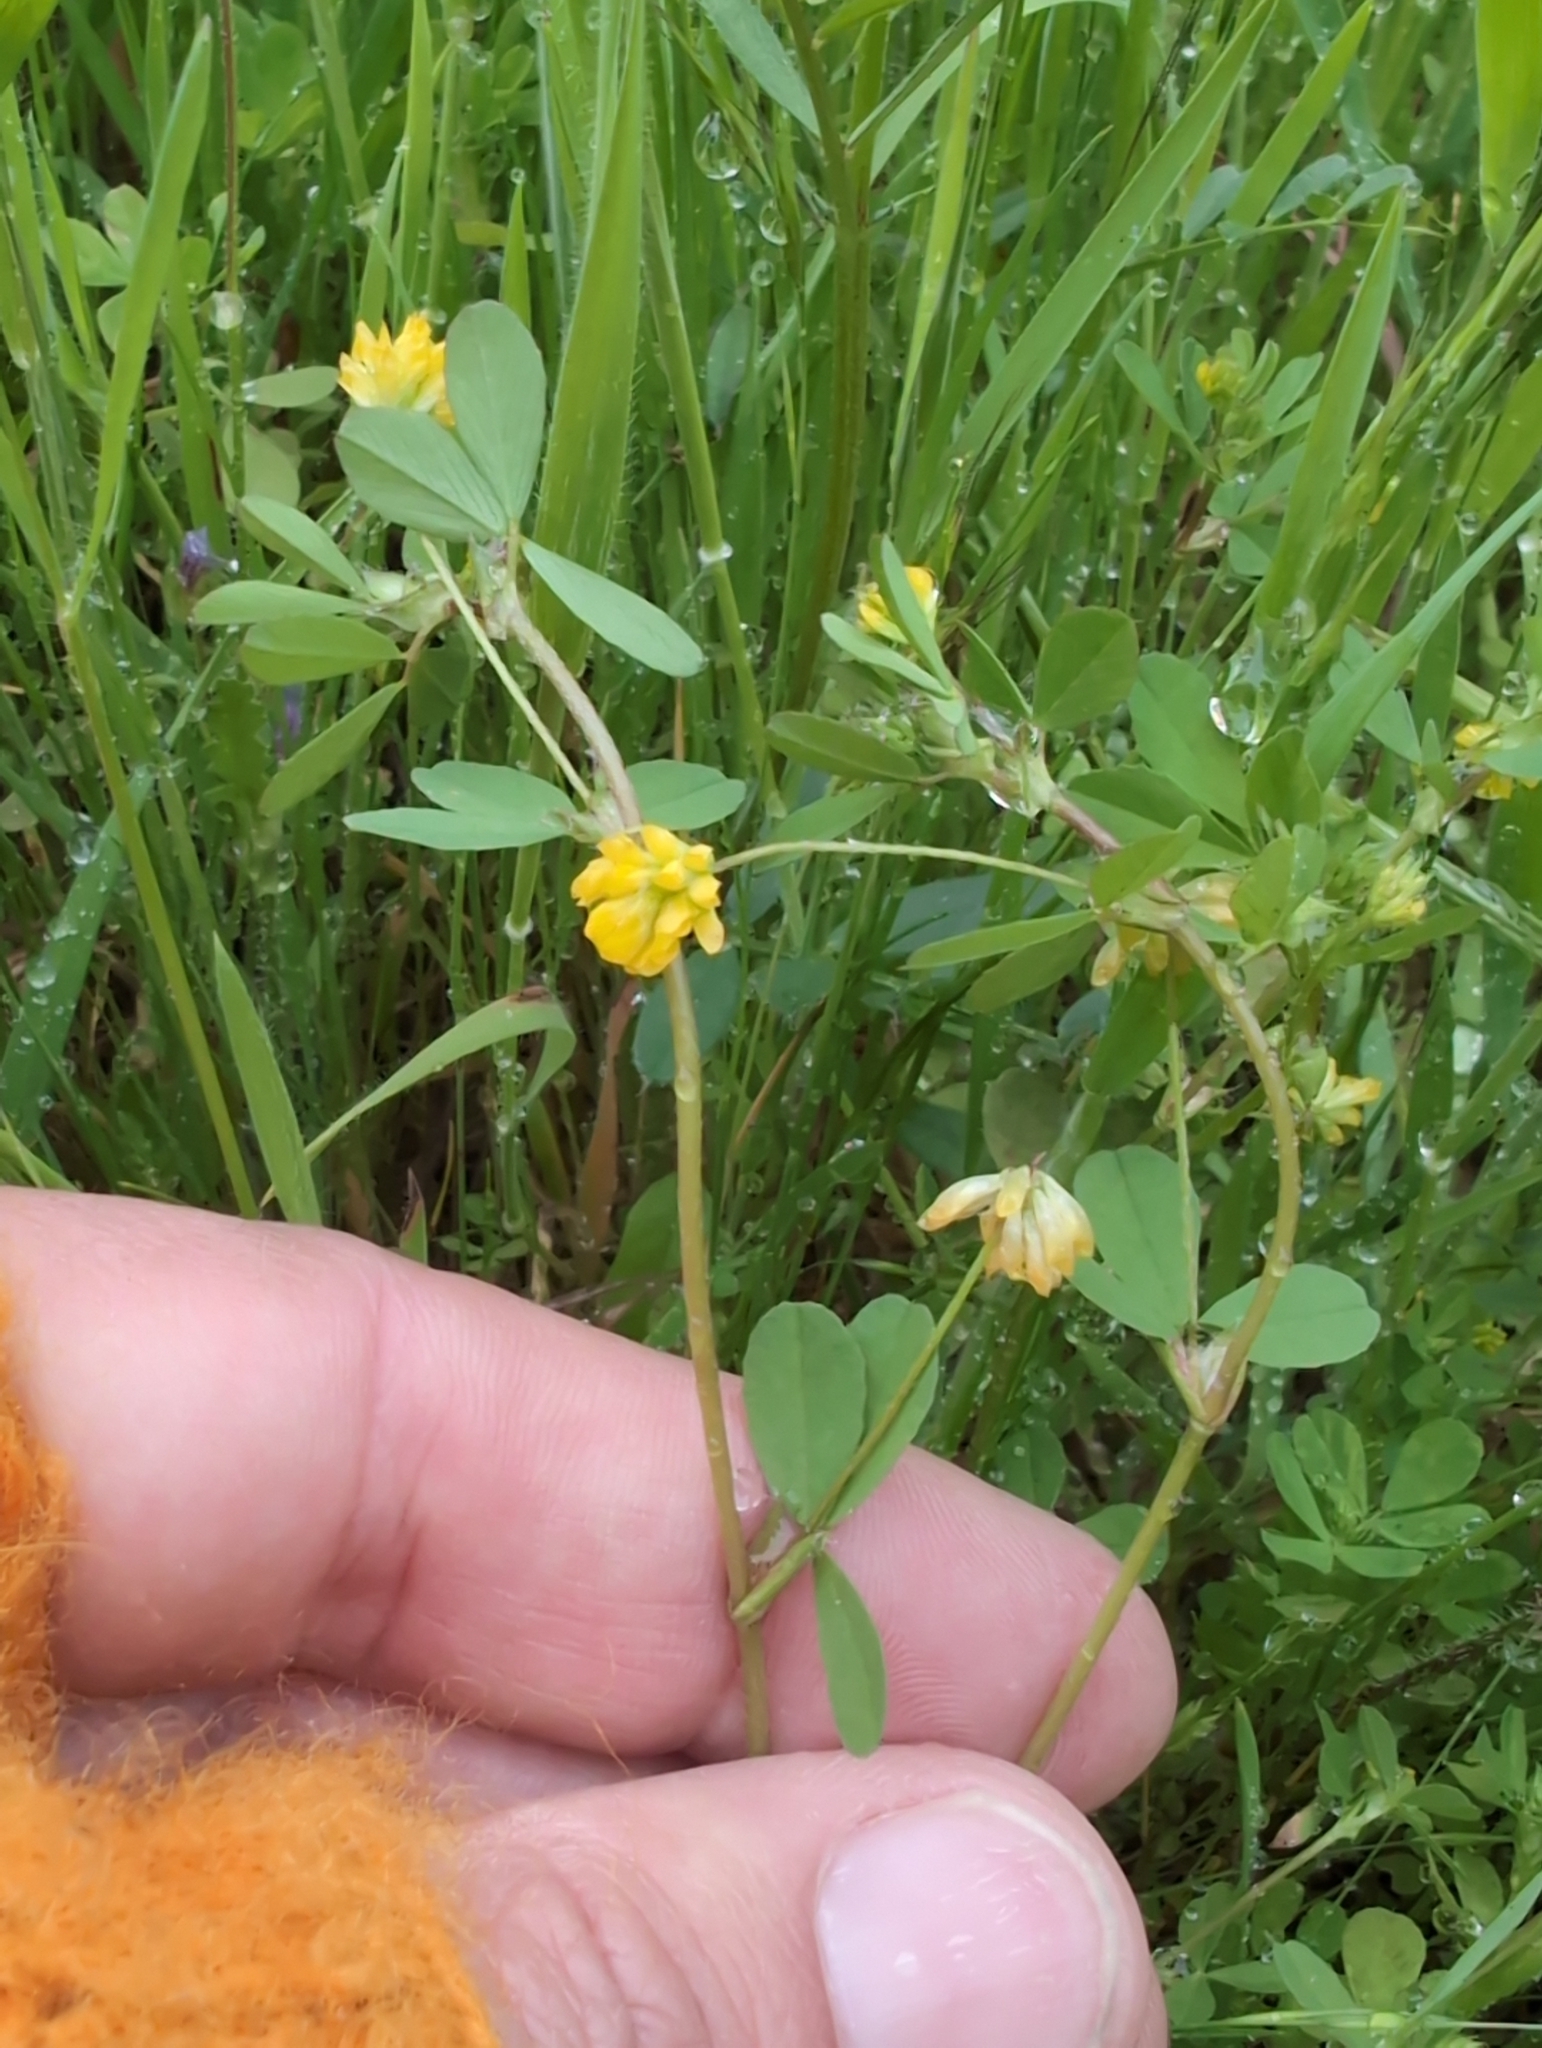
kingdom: Plantae
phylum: Tracheophyta
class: Magnoliopsida
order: Fabales
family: Fabaceae
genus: Trifolium
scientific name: Trifolium dubium
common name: Suckling clover
